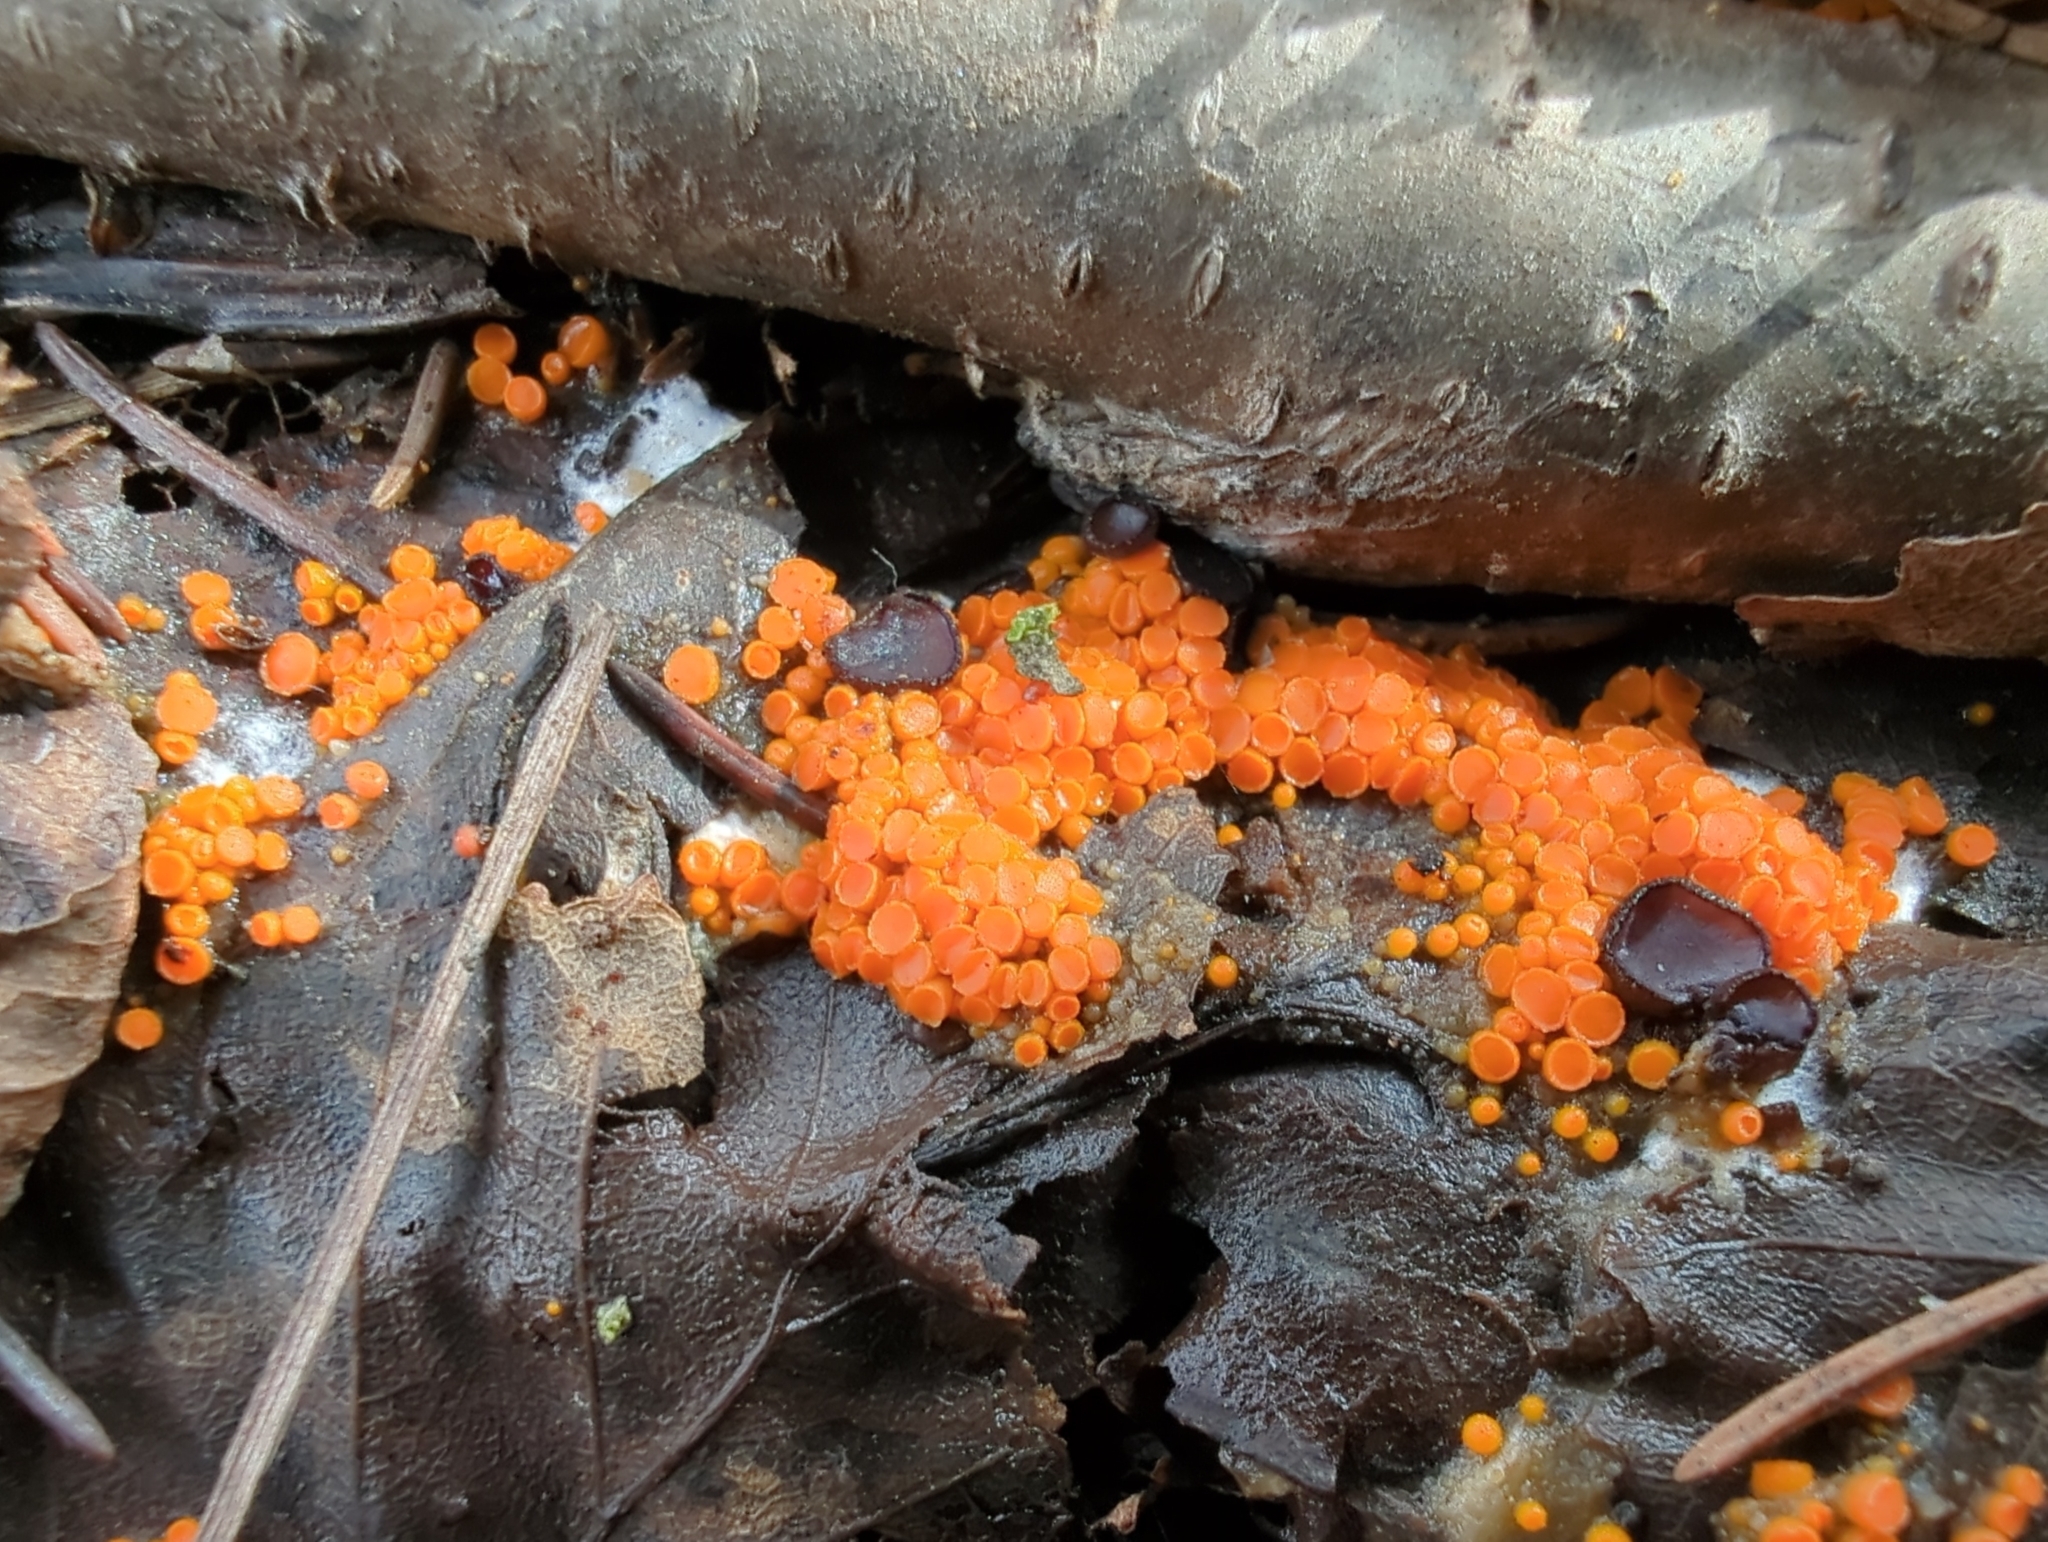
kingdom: Fungi
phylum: Ascomycota
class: Pezizomycetes
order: Pezizales
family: Pyronemataceae
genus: Byssonectria
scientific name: Byssonectria terrestris
